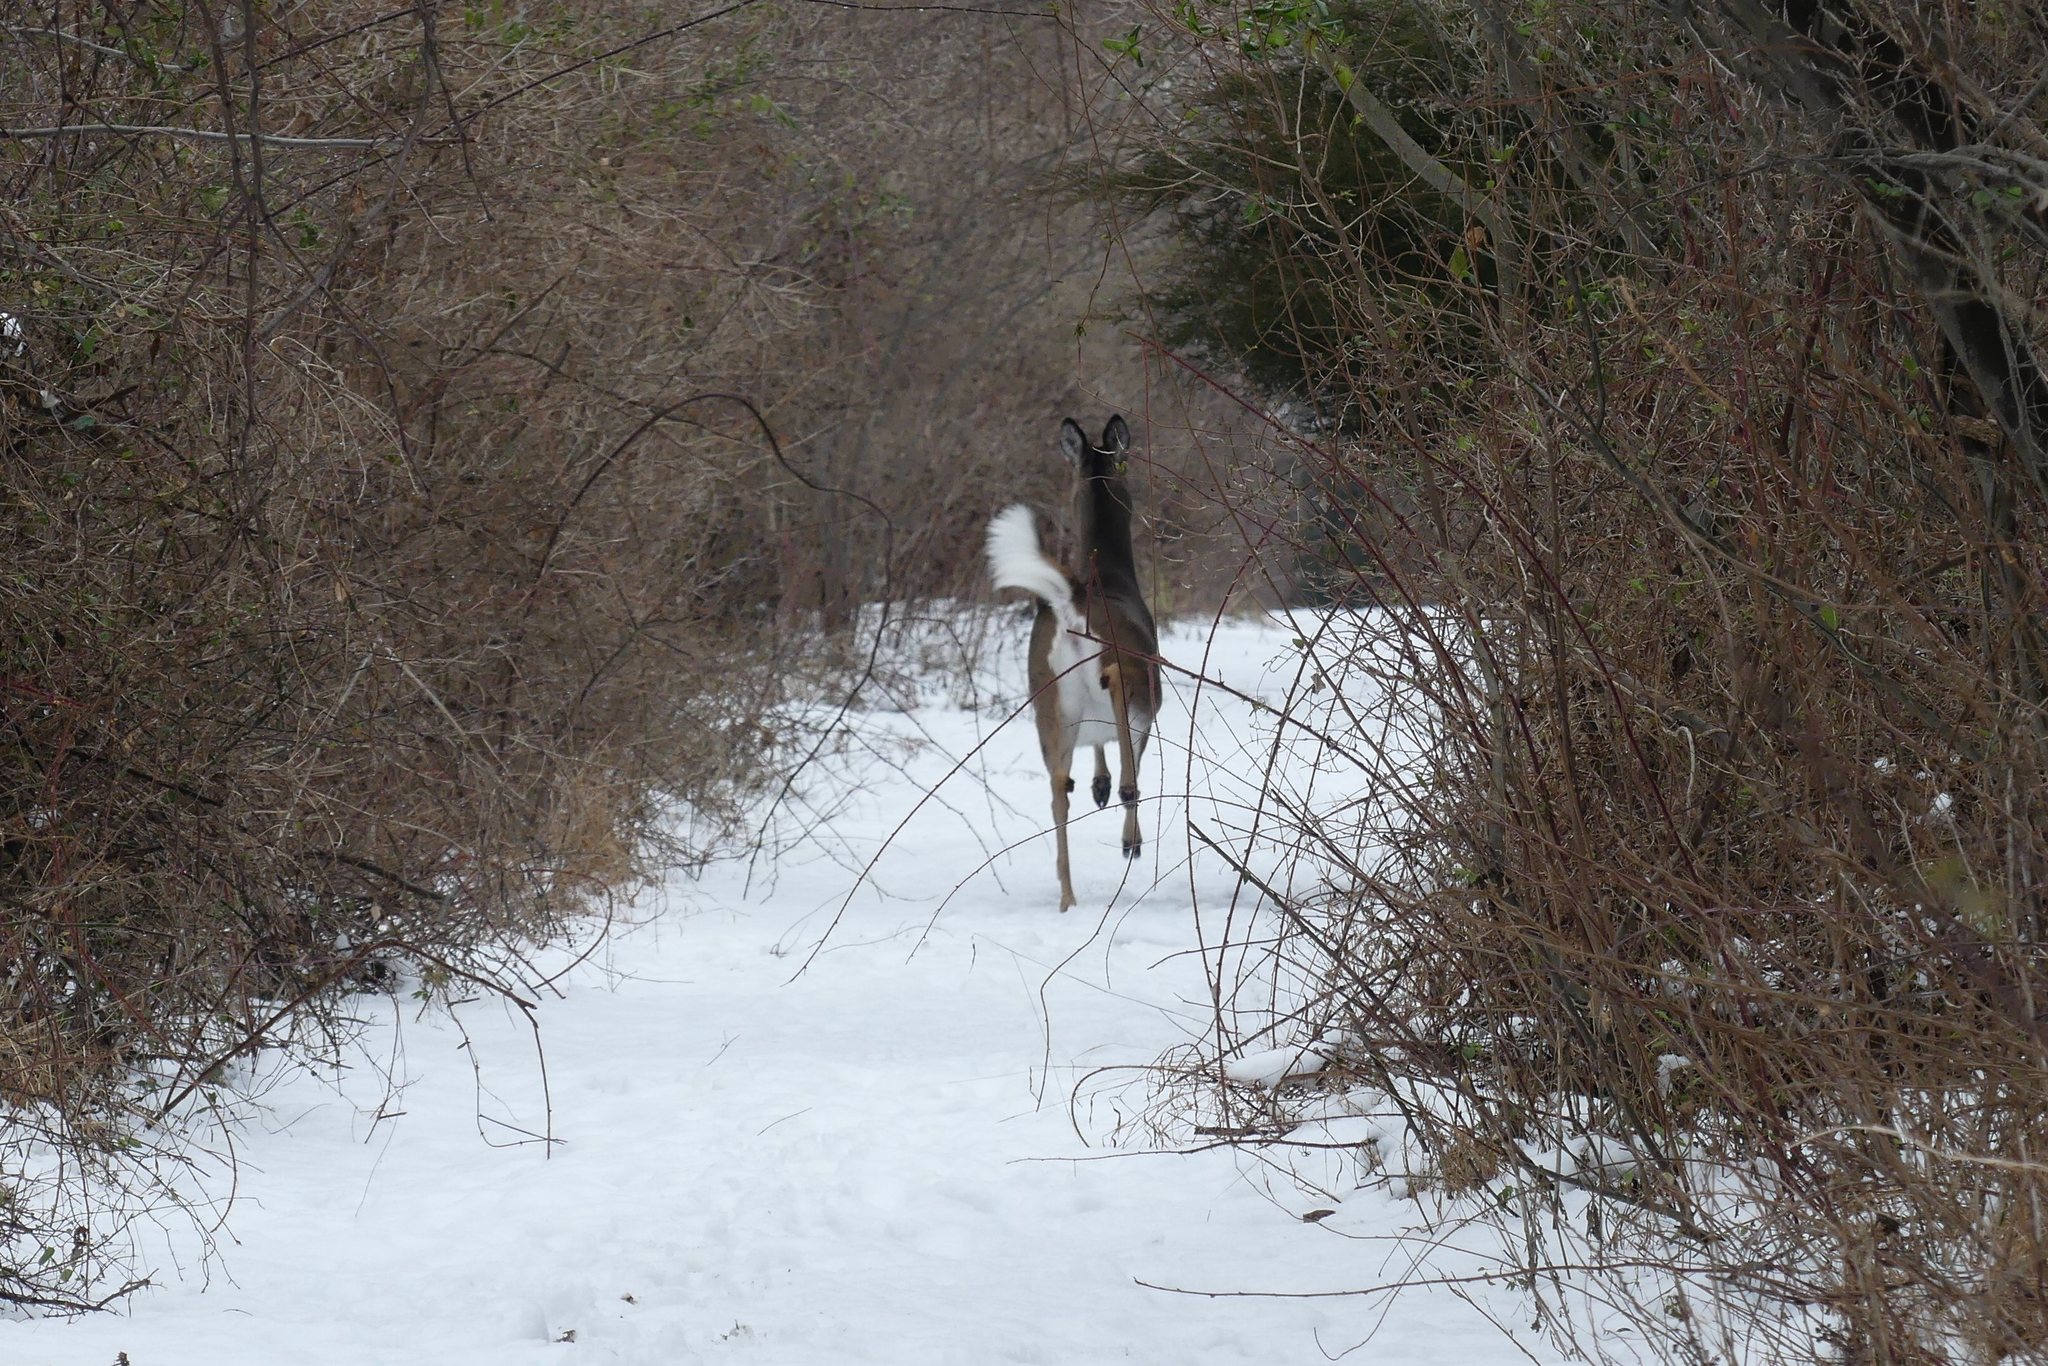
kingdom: Animalia
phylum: Chordata
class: Mammalia
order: Artiodactyla
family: Cervidae
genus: Odocoileus
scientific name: Odocoileus virginianus
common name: White-tailed deer
